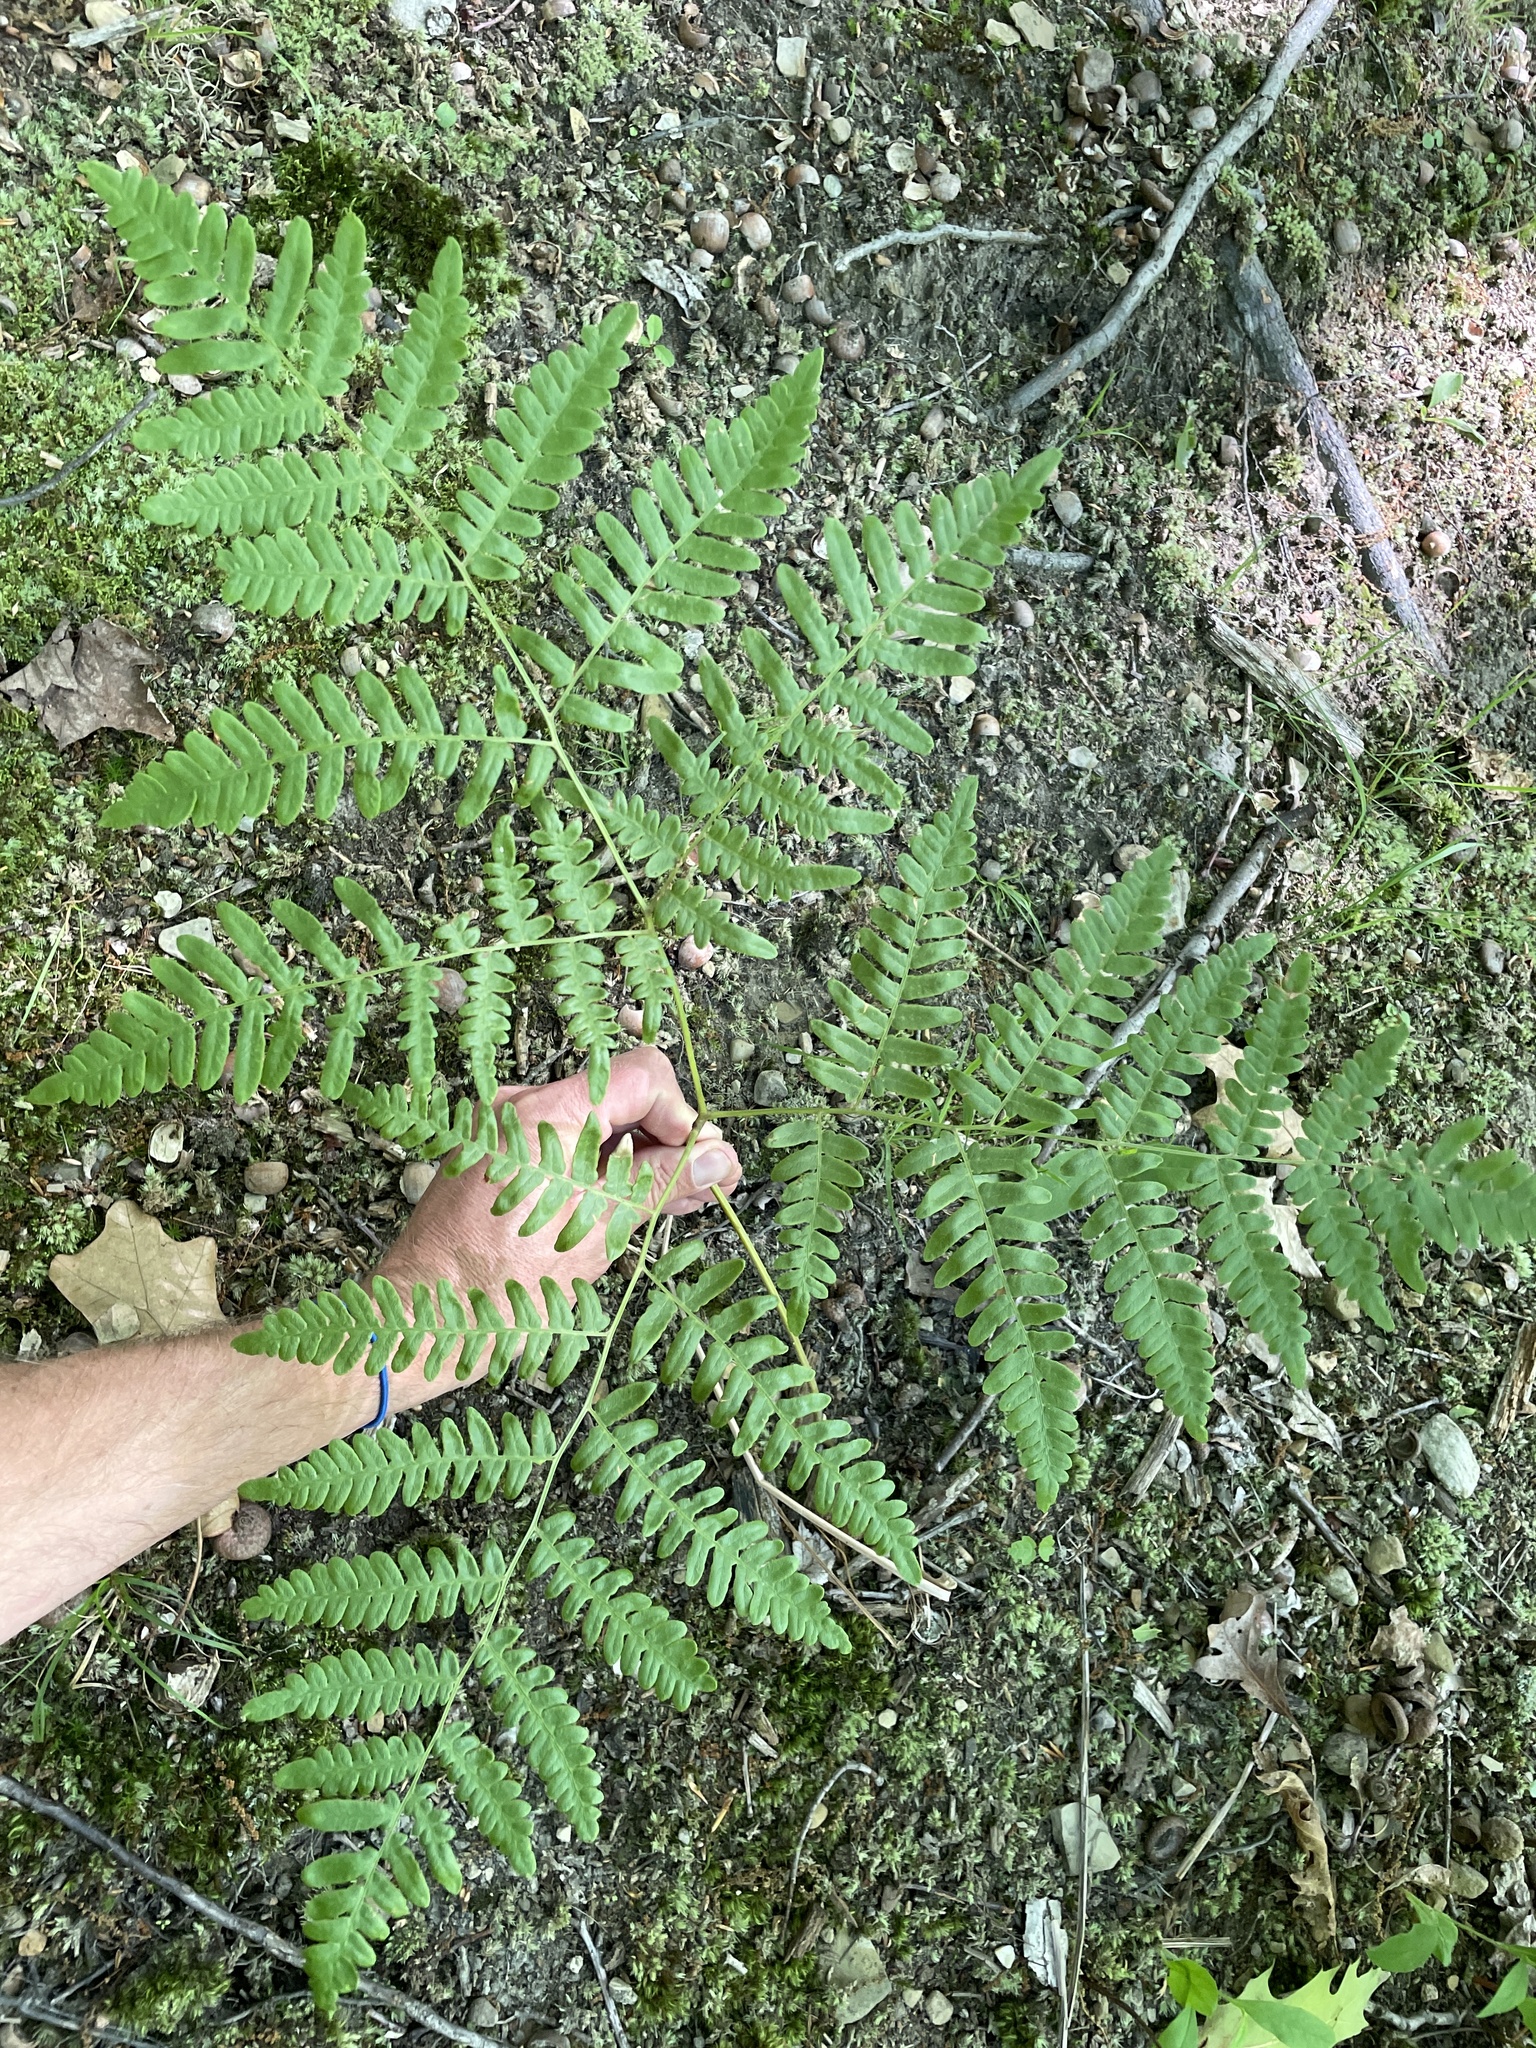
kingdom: Plantae
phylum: Tracheophyta
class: Polypodiopsida
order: Polypodiales
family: Dennstaedtiaceae
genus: Pteridium
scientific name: Pteridium aquilinum
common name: Bracken
